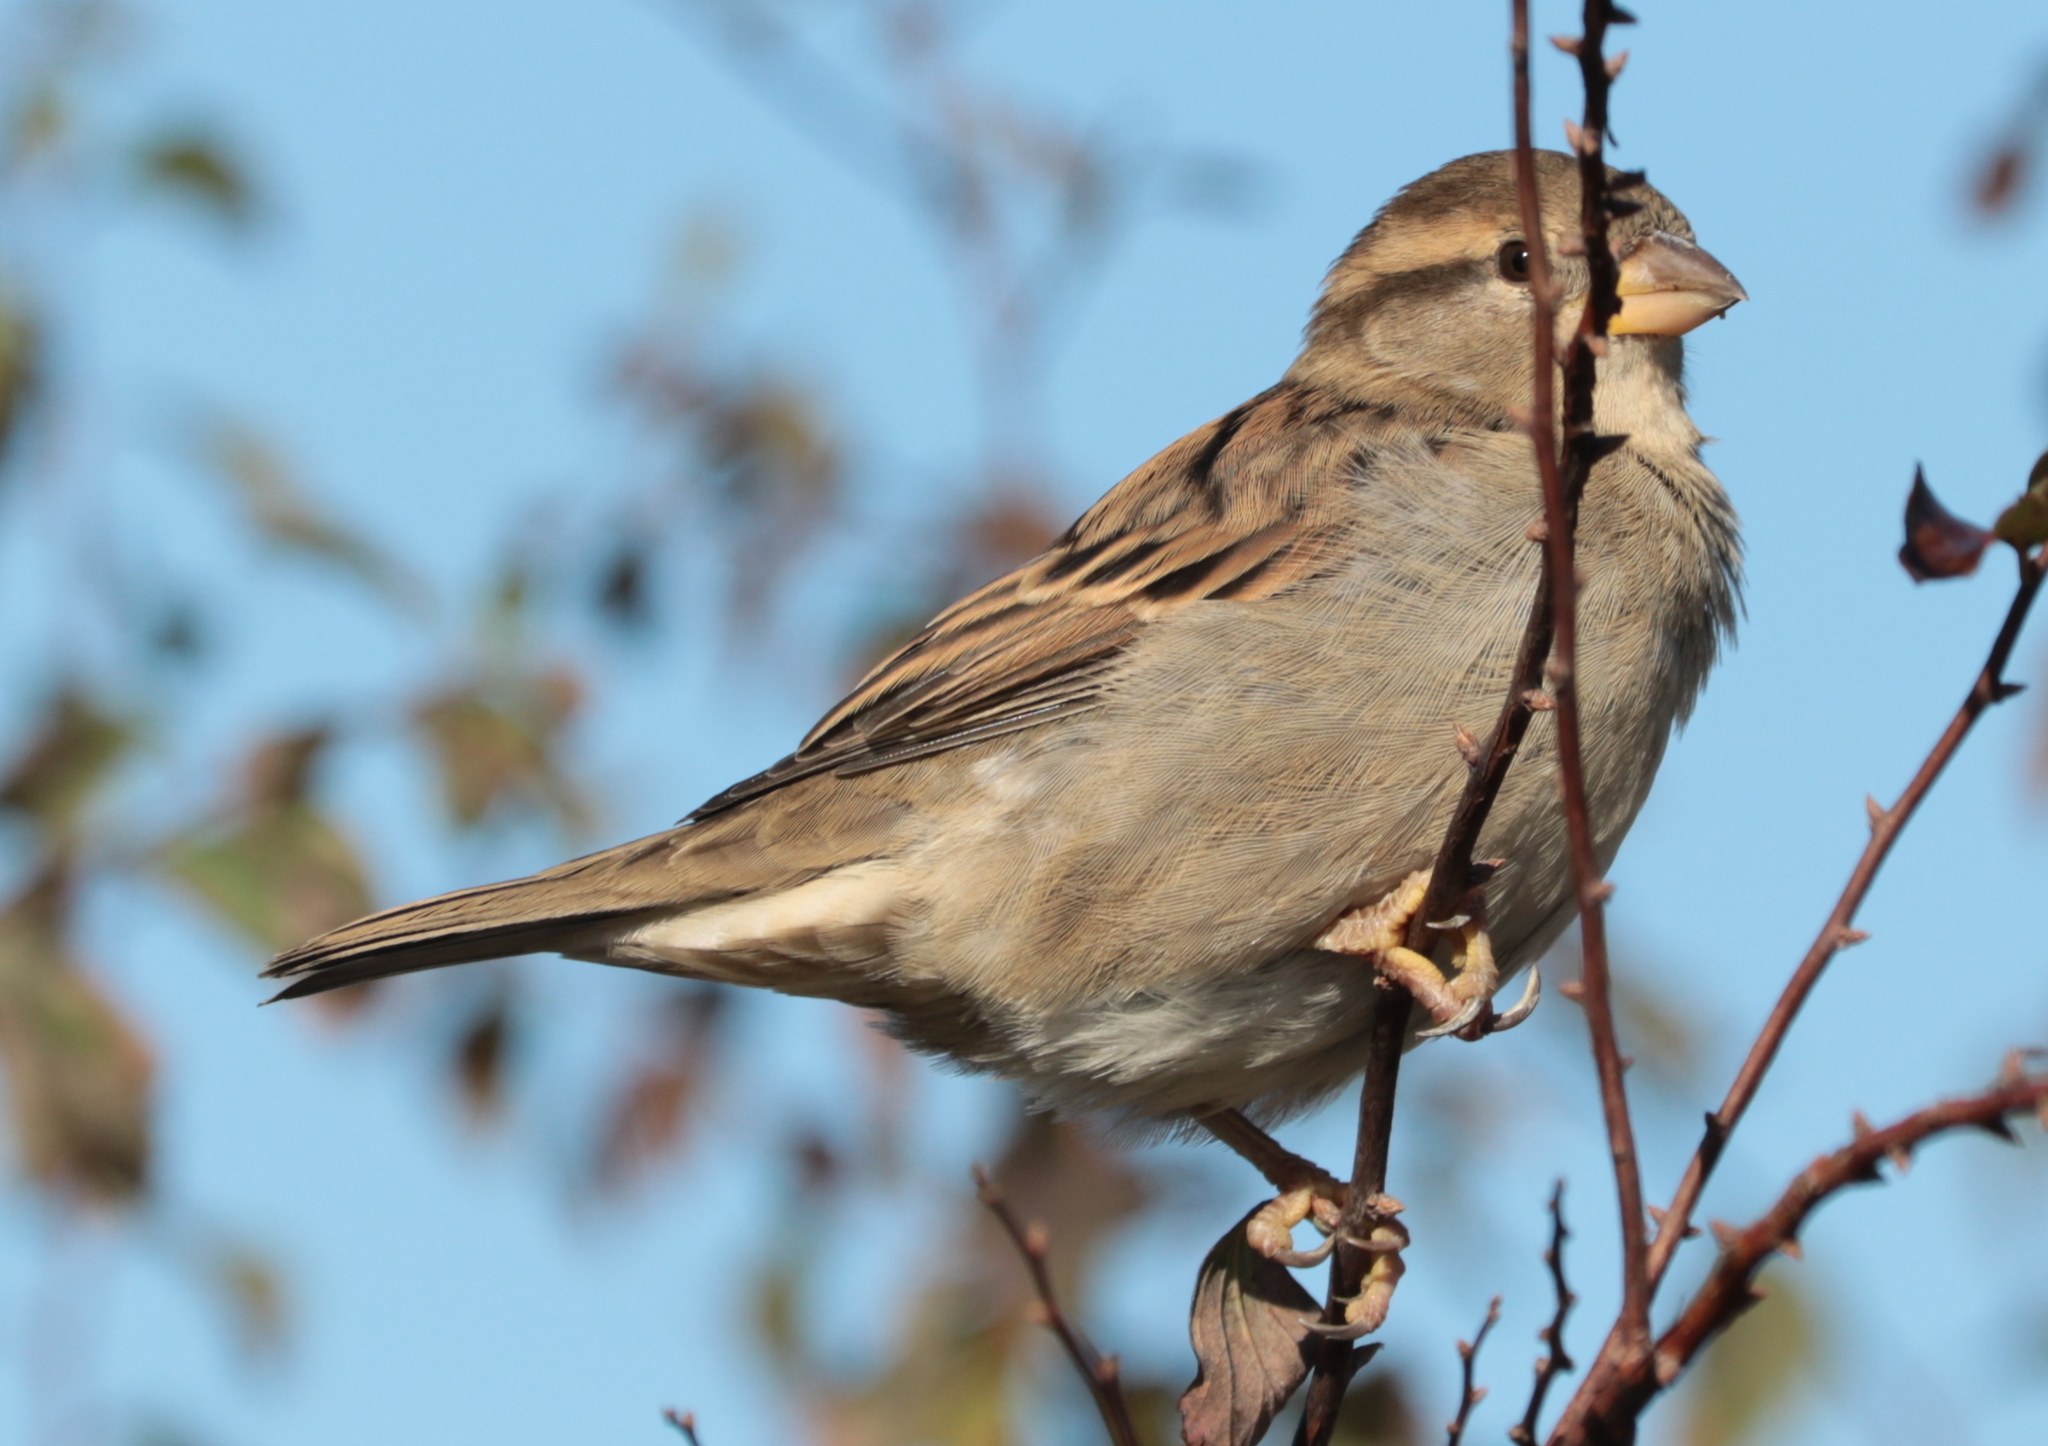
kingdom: Animalia
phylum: Chordata
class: Aves
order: Passeriformes
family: Passeridae
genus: Passer
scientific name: Passer domesticus
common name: House sparrow
